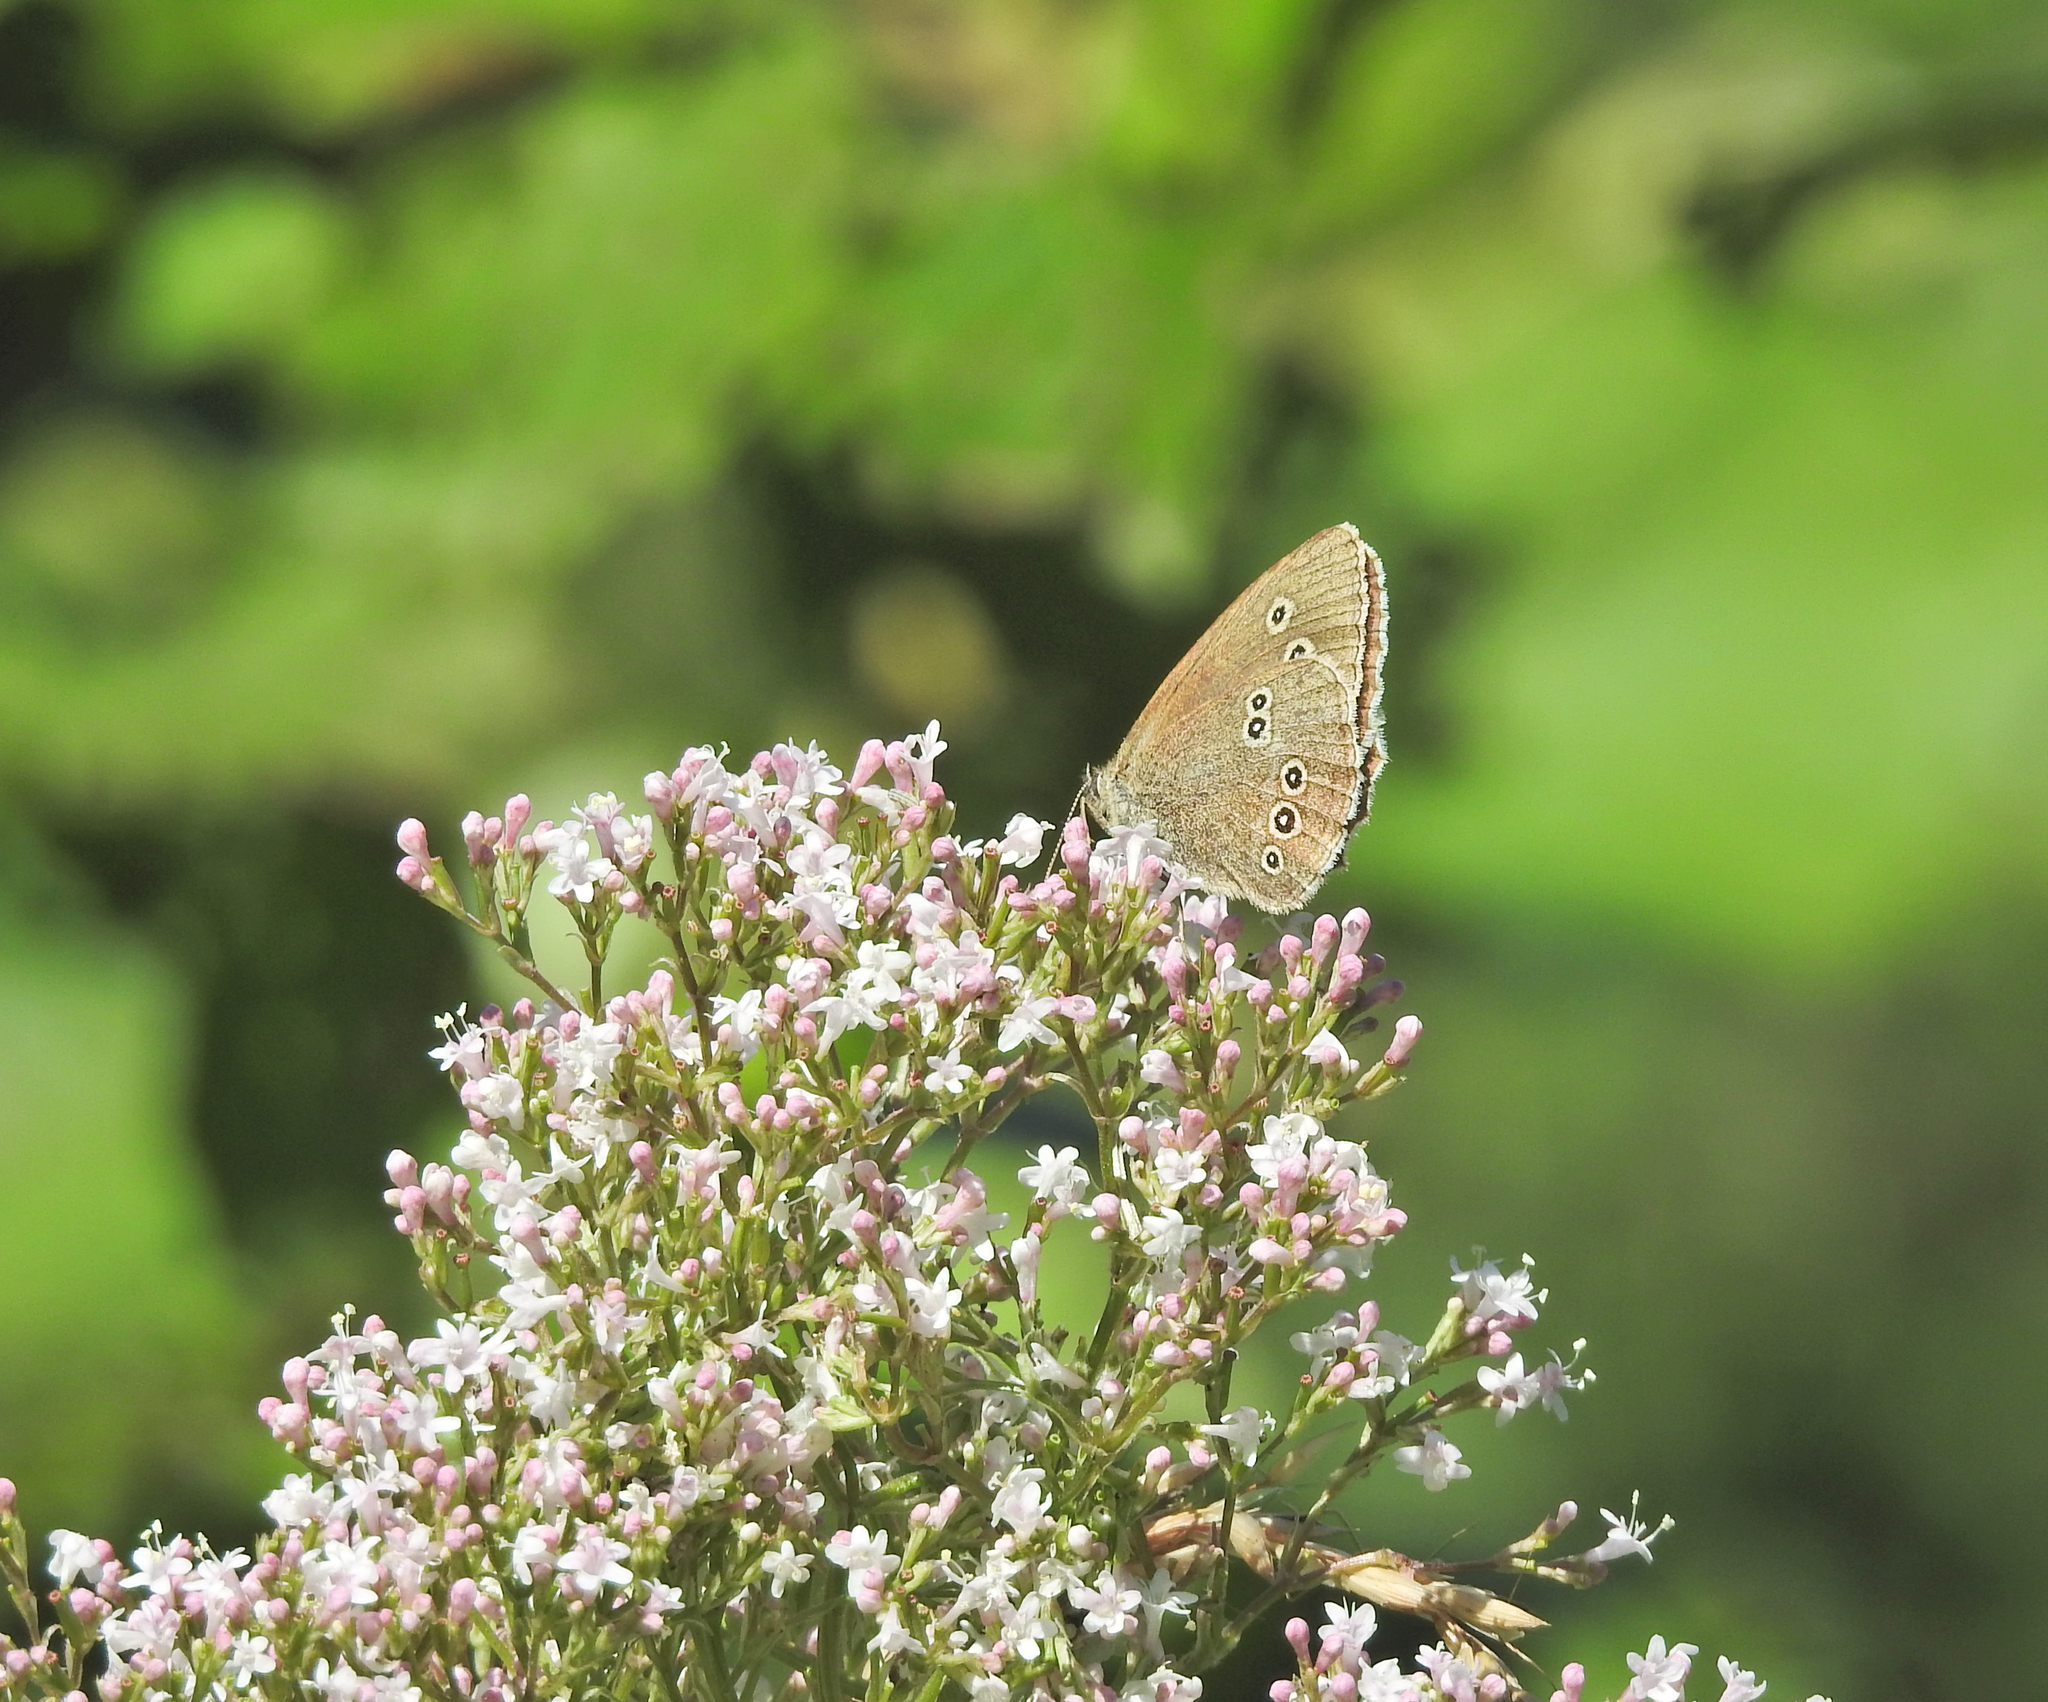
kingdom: Animalia
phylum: Arthropoda
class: Insecta
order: Lepidoptera
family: Nymphalidae
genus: Aphantopus
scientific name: Aphantopus hyperantus
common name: Ringlet
